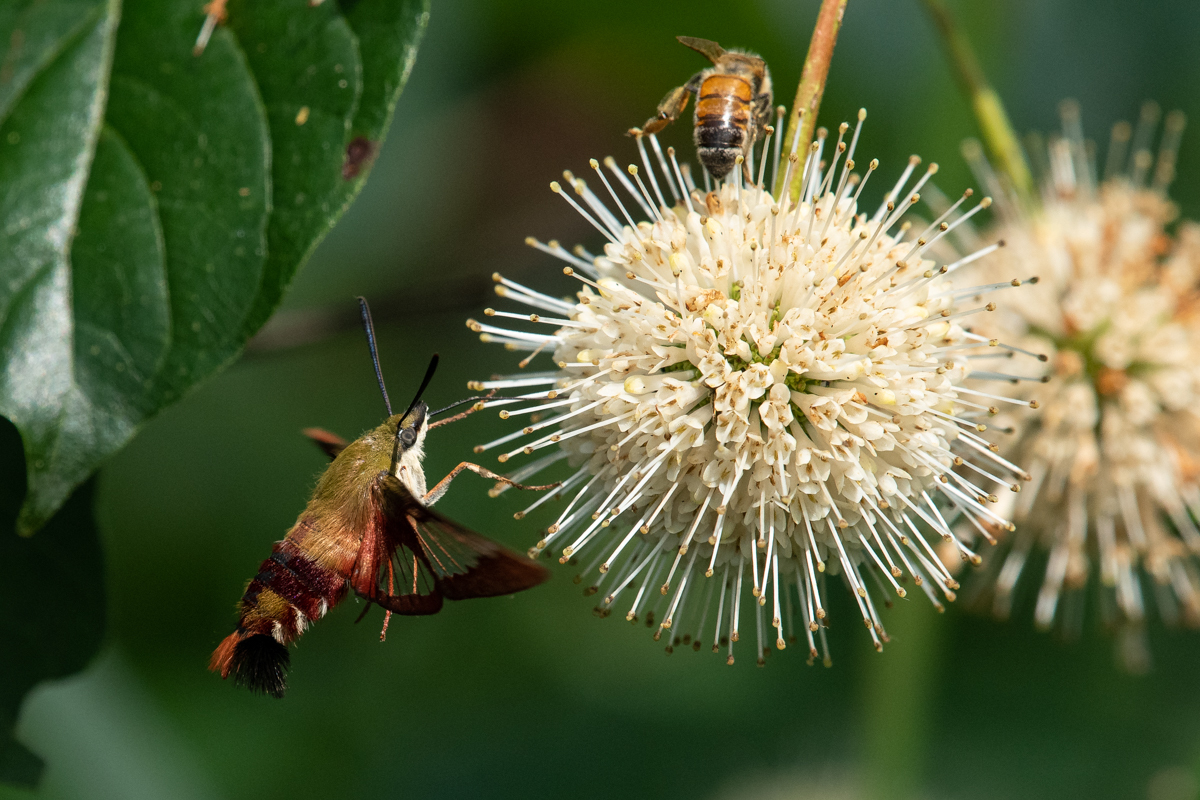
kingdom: Animalia
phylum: Arthropoda
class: Insecta
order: Lepidoptera
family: Sphingidae
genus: Hemaris
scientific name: Hemaris thysbe
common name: Common clear-wing
